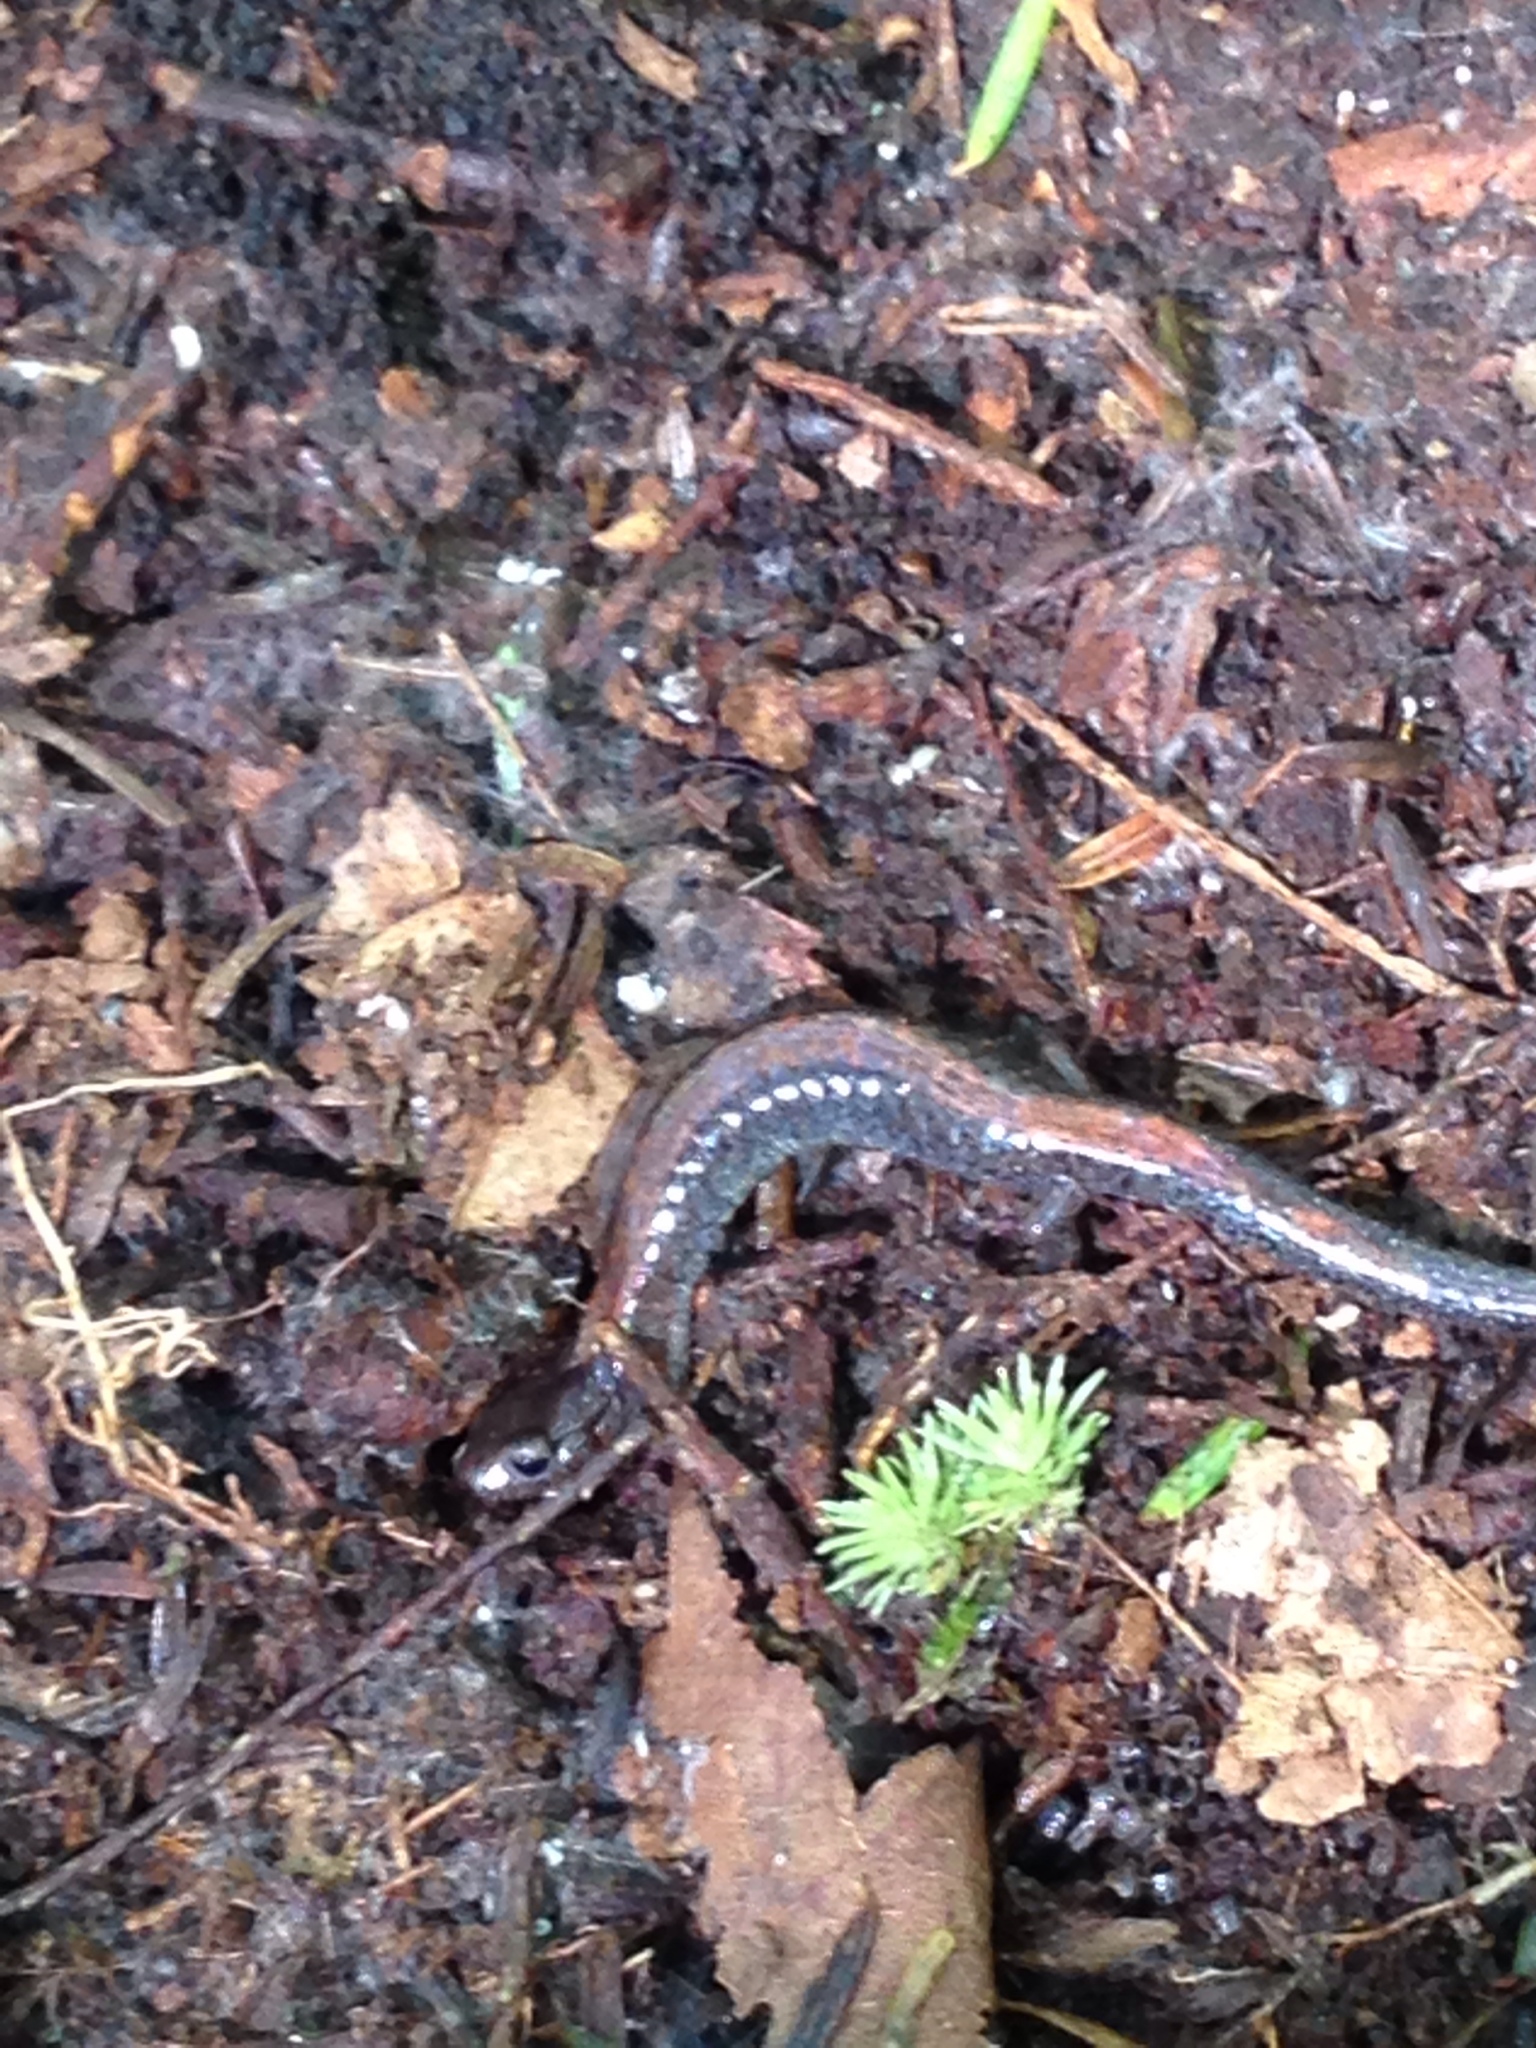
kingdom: Animalia
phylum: Chordata
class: Amphibia
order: Caudata
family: Plethodontidae
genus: Plethodon
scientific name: Plethodon cinereus
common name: Redback salamander
